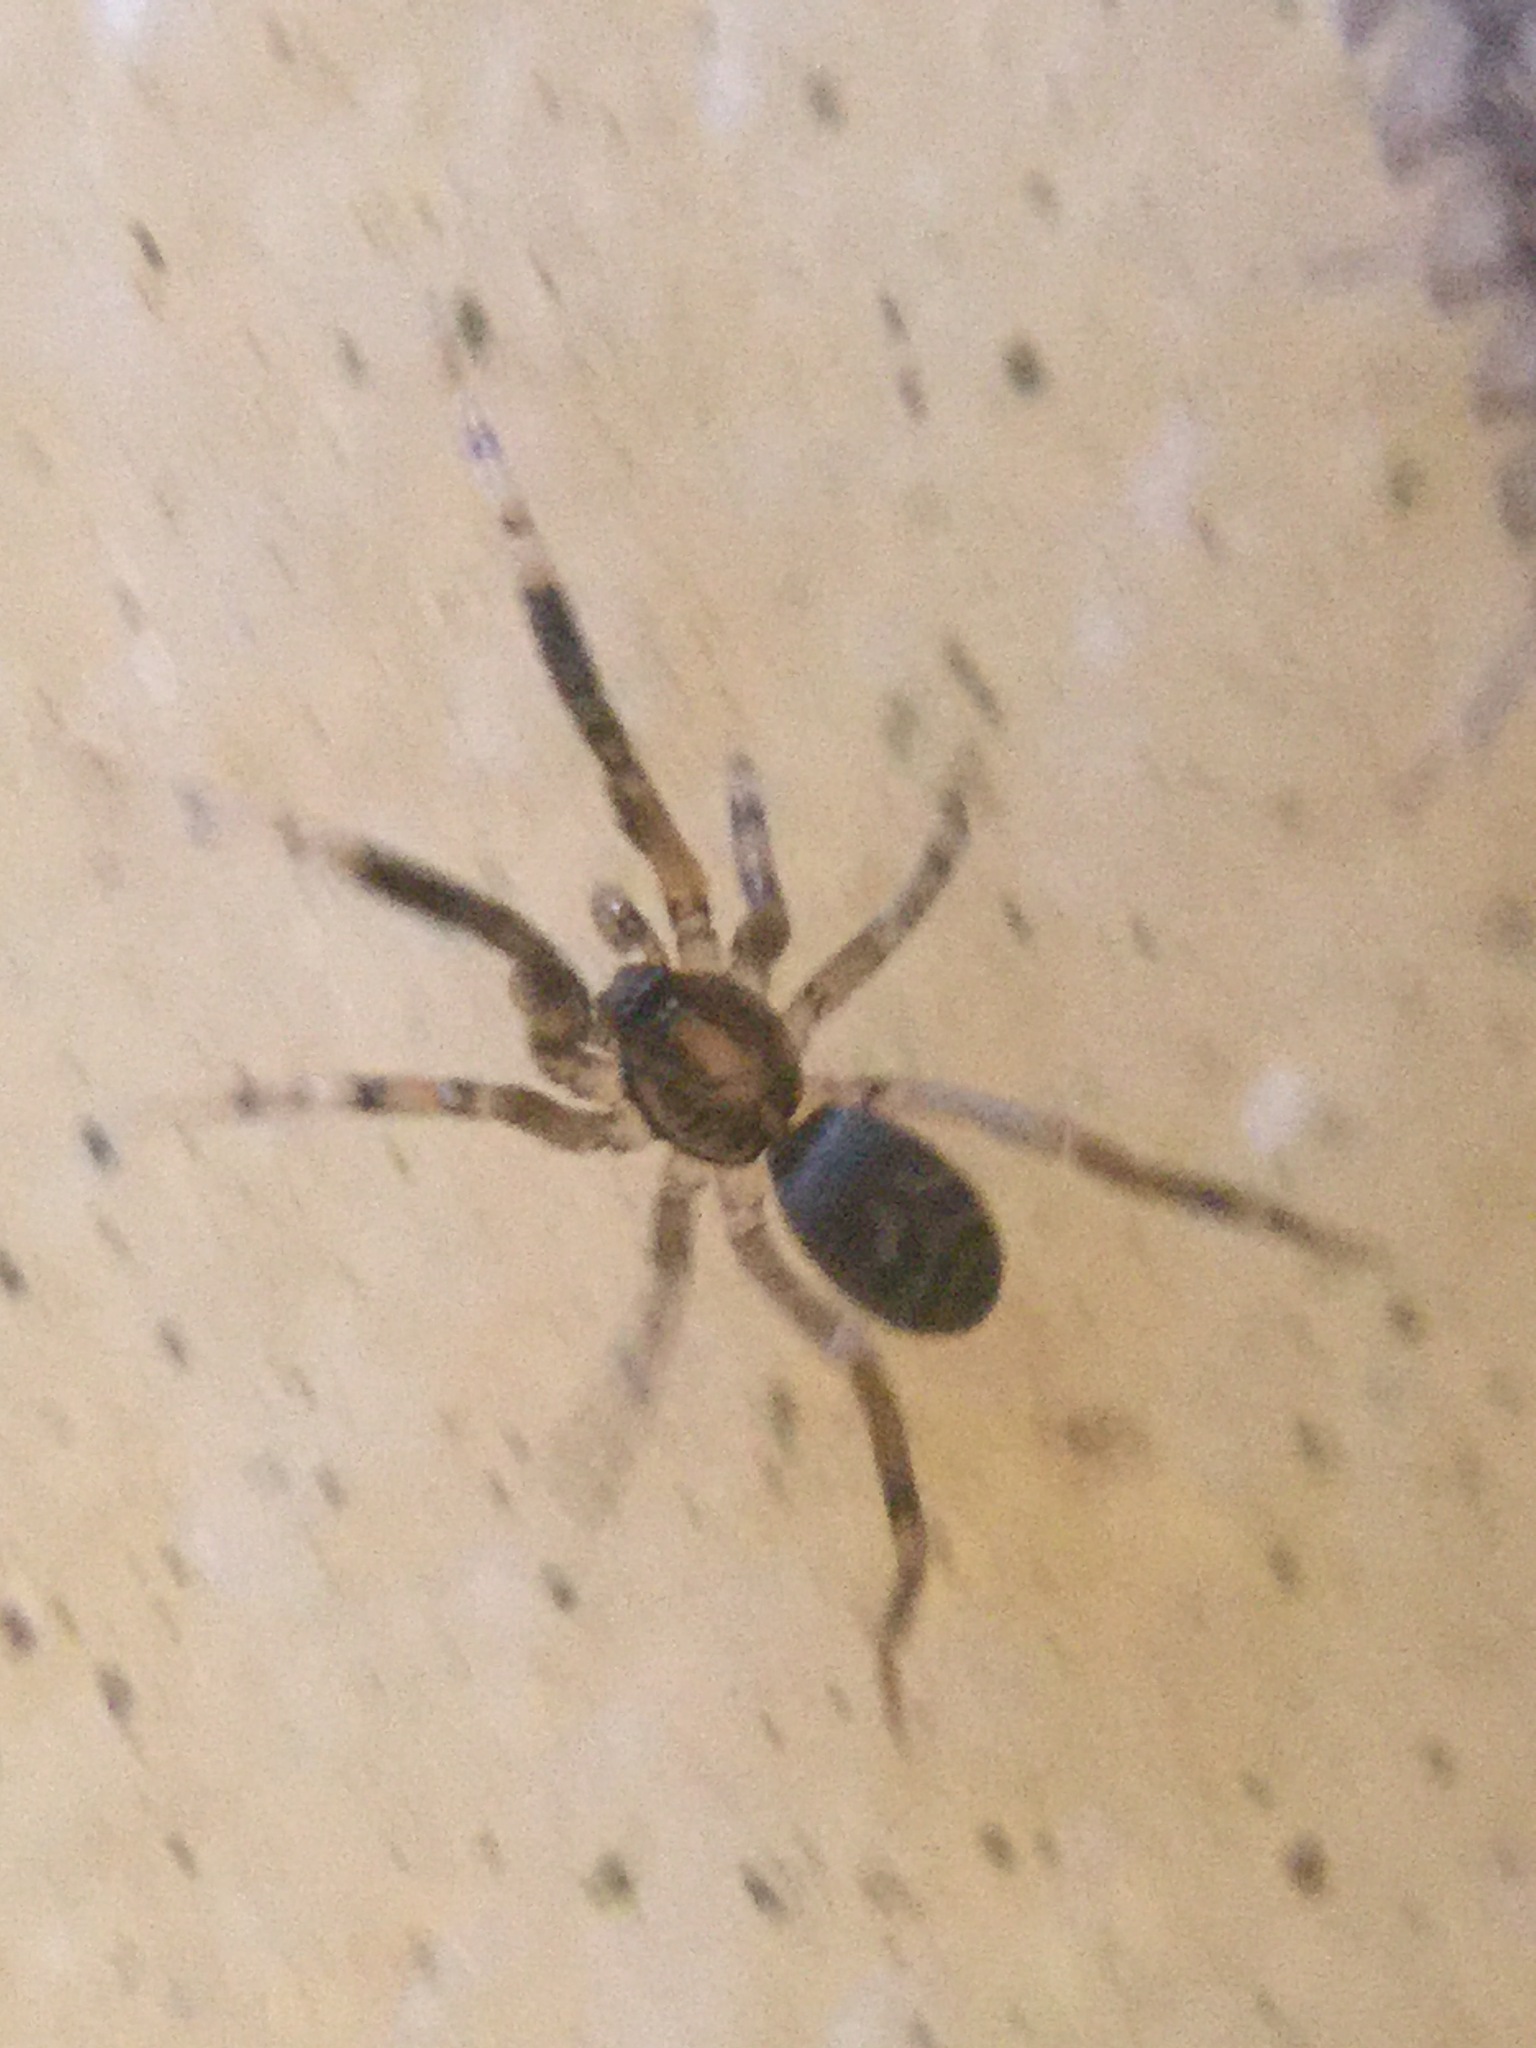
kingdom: Animalia
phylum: Arthropoda
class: Arachnida
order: Araneae
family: Phrurolithidae
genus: Phrurotimpus
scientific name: Phrurotimpus borealis
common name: Greater ant-mimic corinne spider
